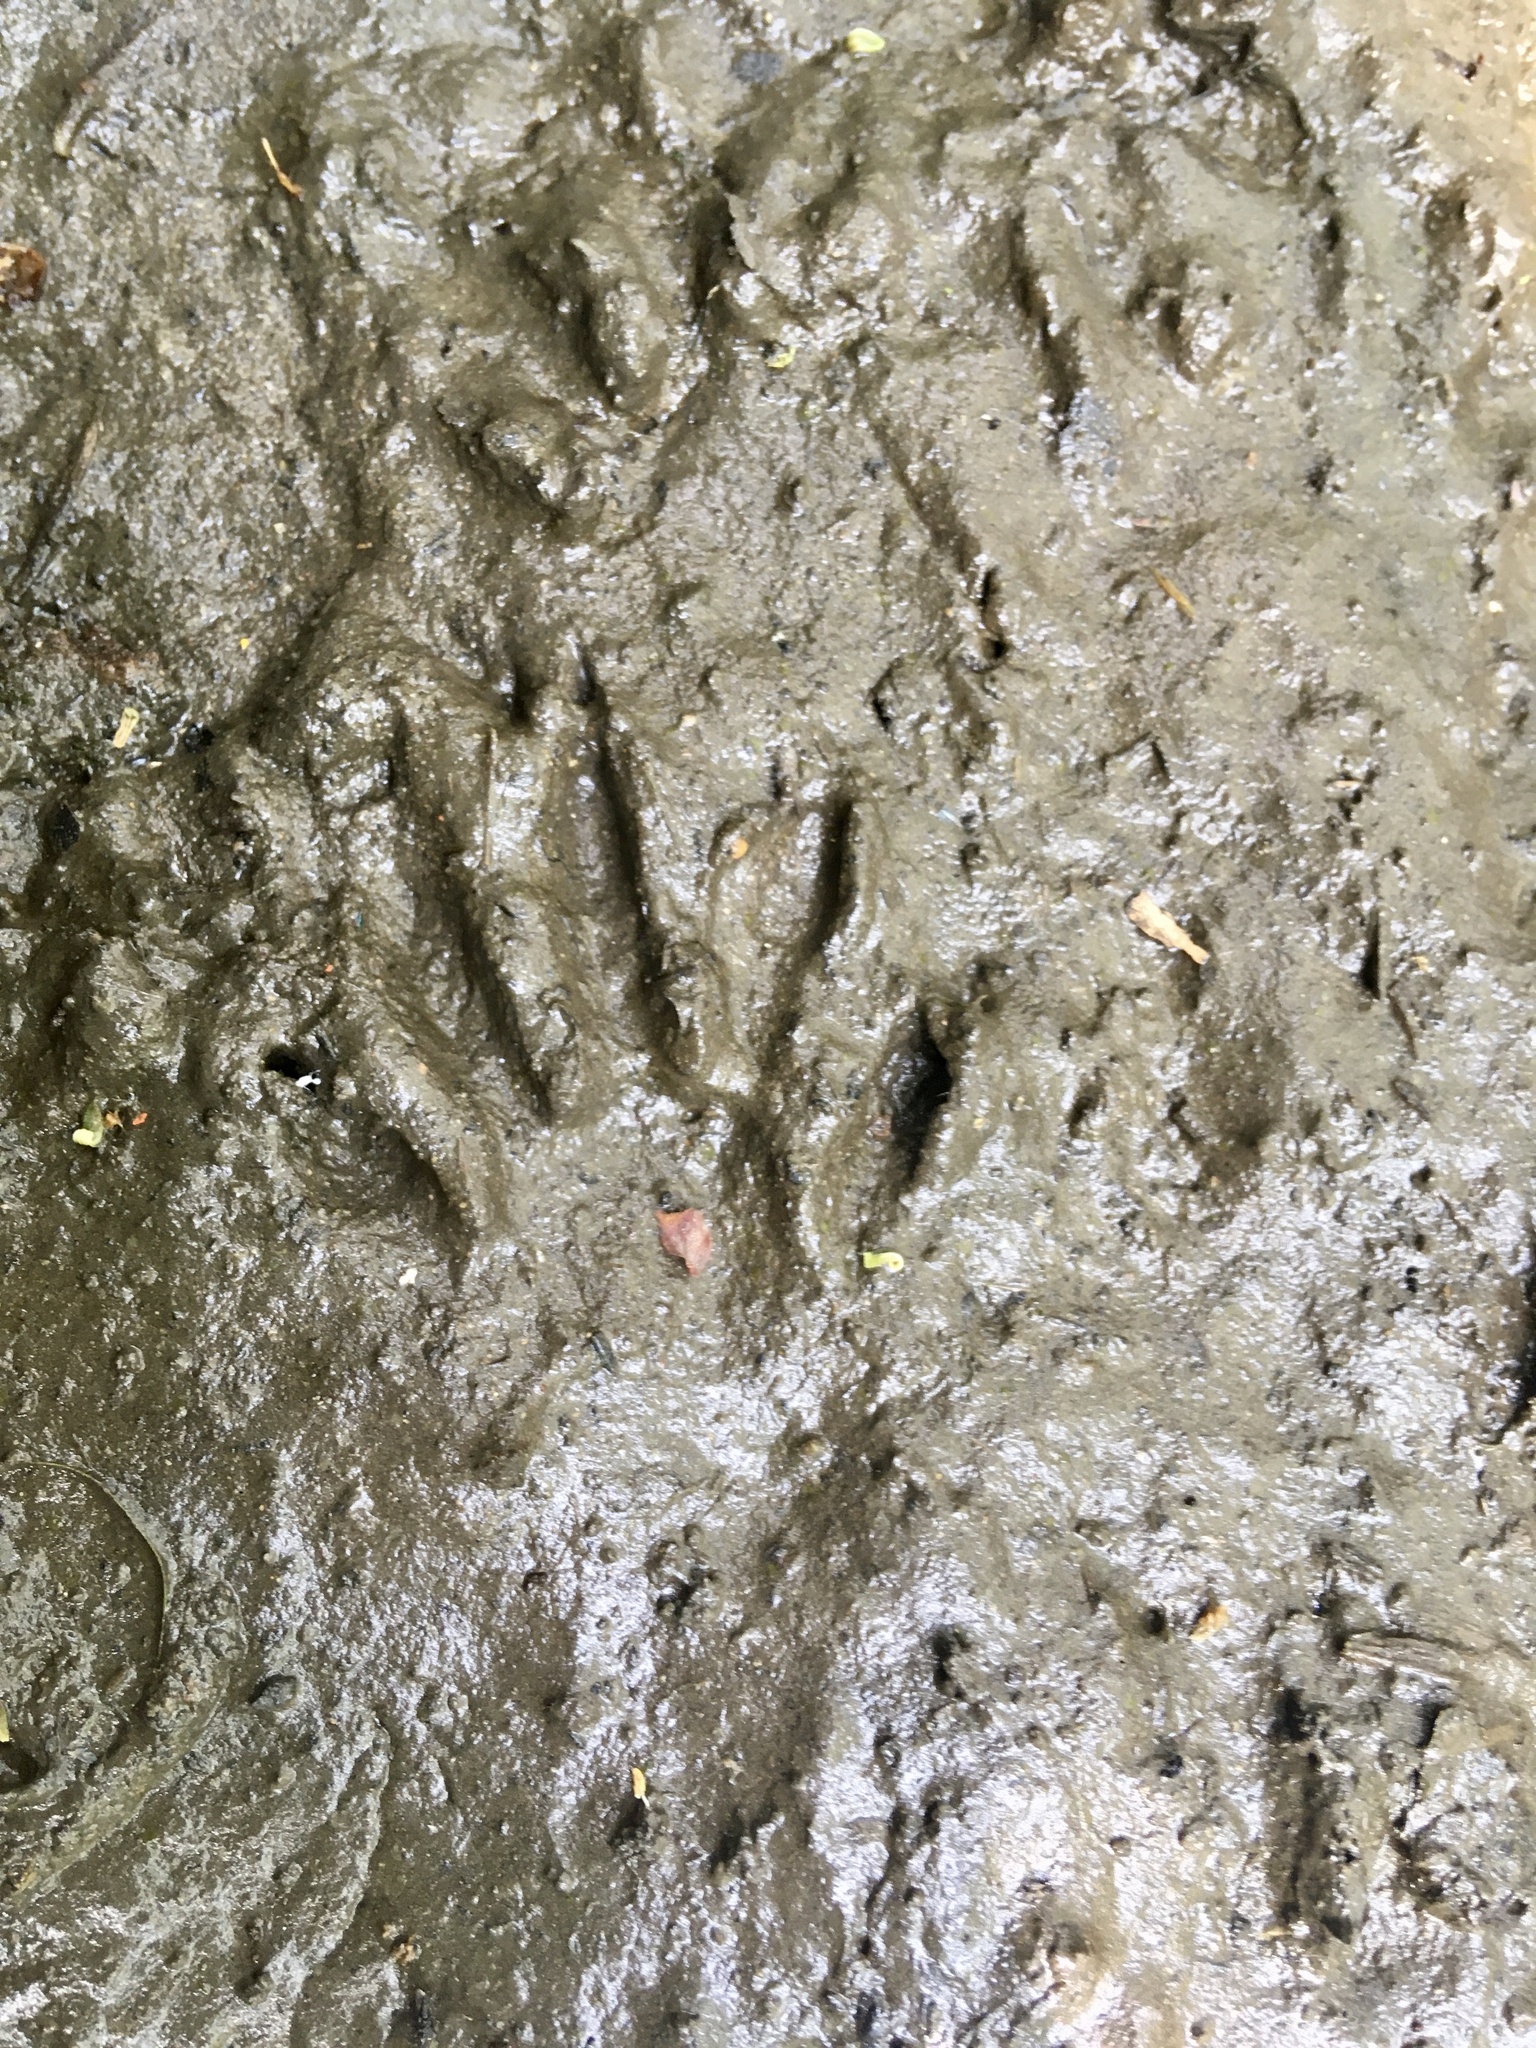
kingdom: Animalia
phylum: Chordata
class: Mammalia
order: Carnivora
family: Procyonidae
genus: Procyon
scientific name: Procyon lotor
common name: Raccoon
